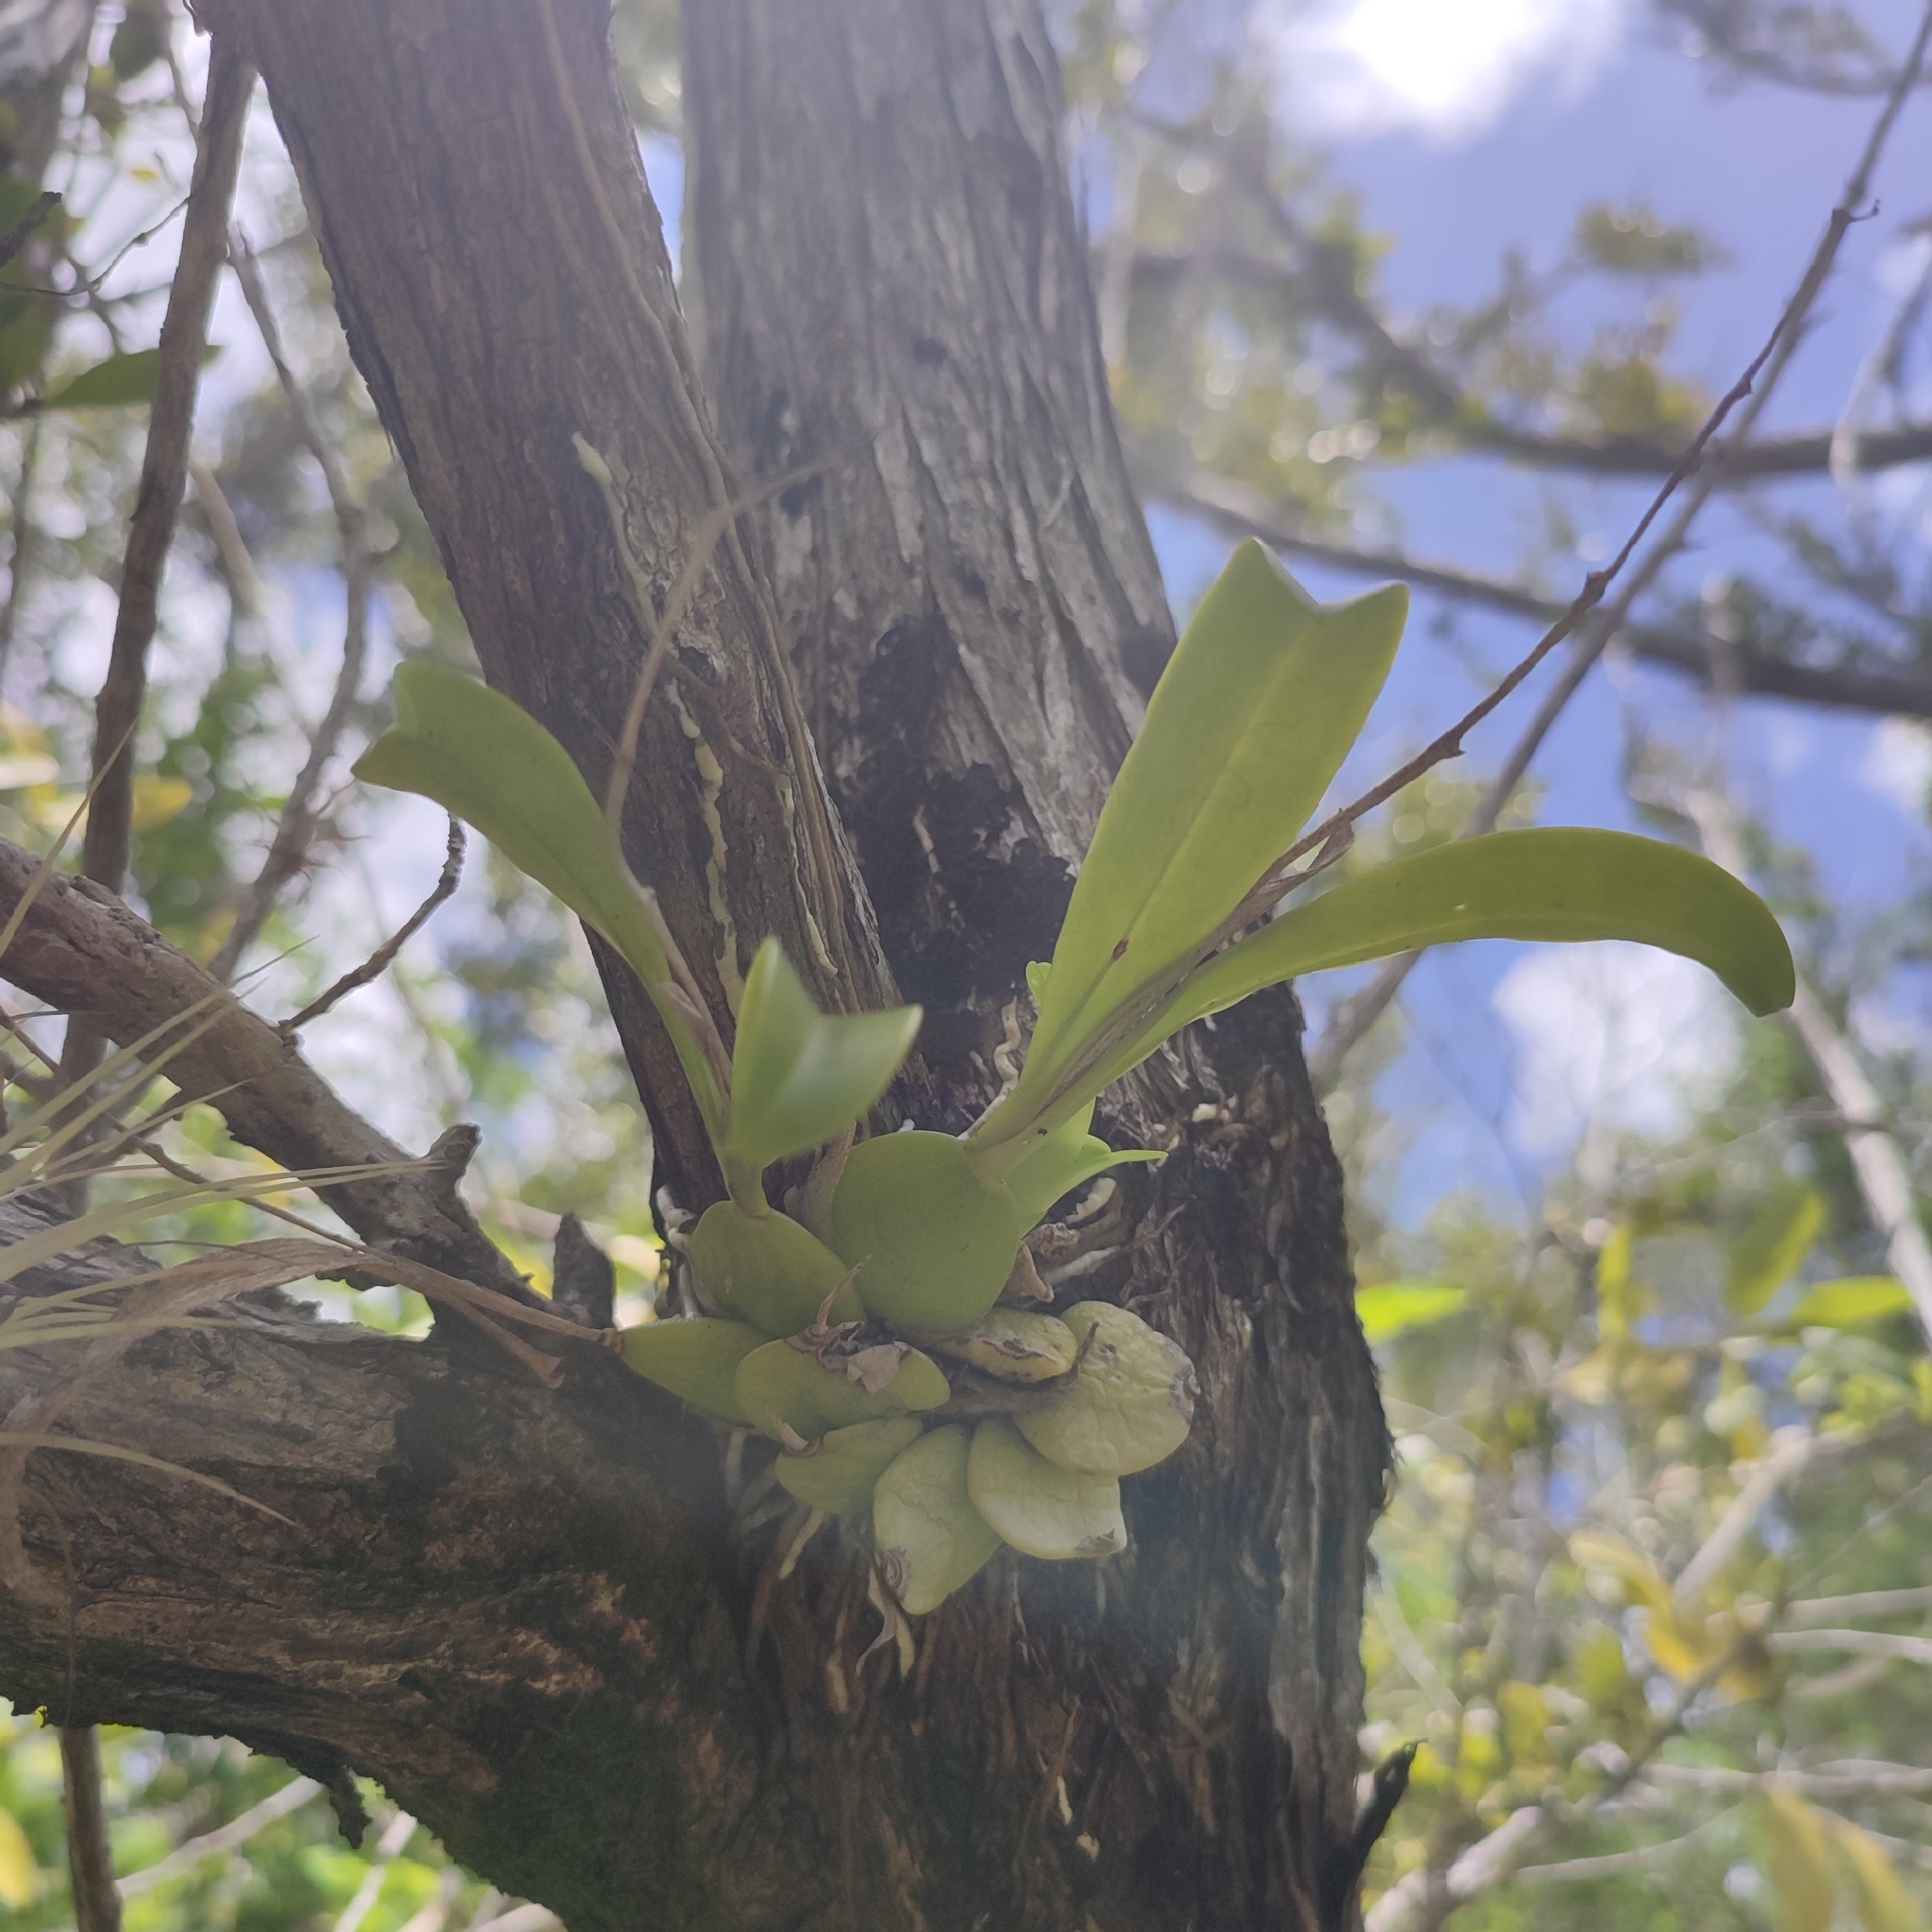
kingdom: Plantae
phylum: Tracheophyta
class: Liliopsida
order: Asparagales
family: Orchidaceae
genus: Prosthechea
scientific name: Prosthechea boothiana
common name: Dollar orchid
